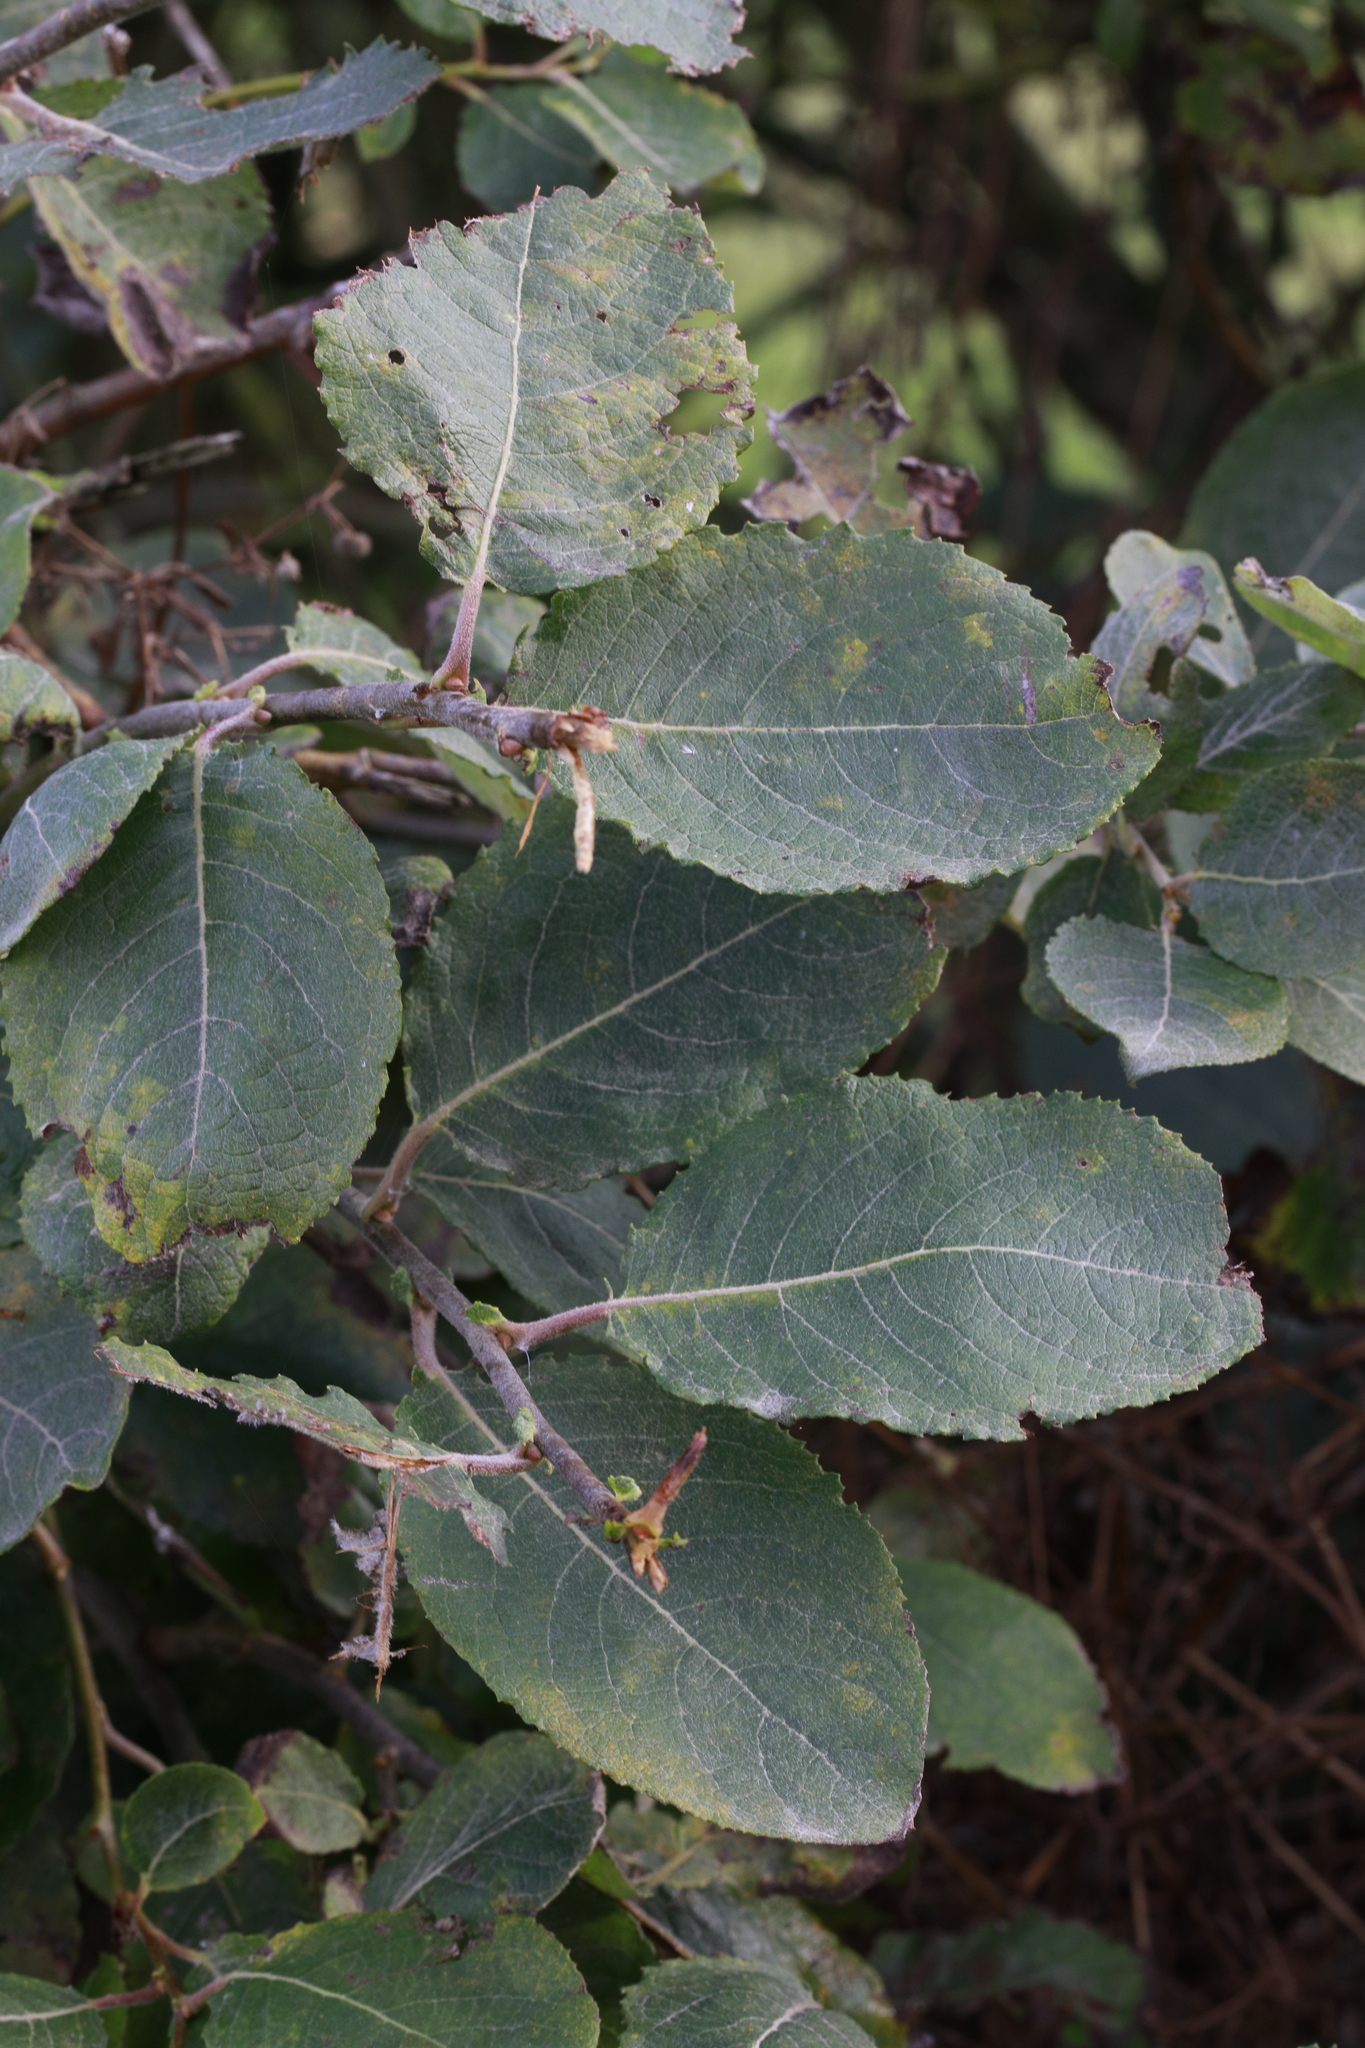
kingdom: Plantae
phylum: Tracheophyta
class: Magnoliopsida
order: Malpighiales
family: Salicaceae
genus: Salix
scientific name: Salix caprea
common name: Goat willow
